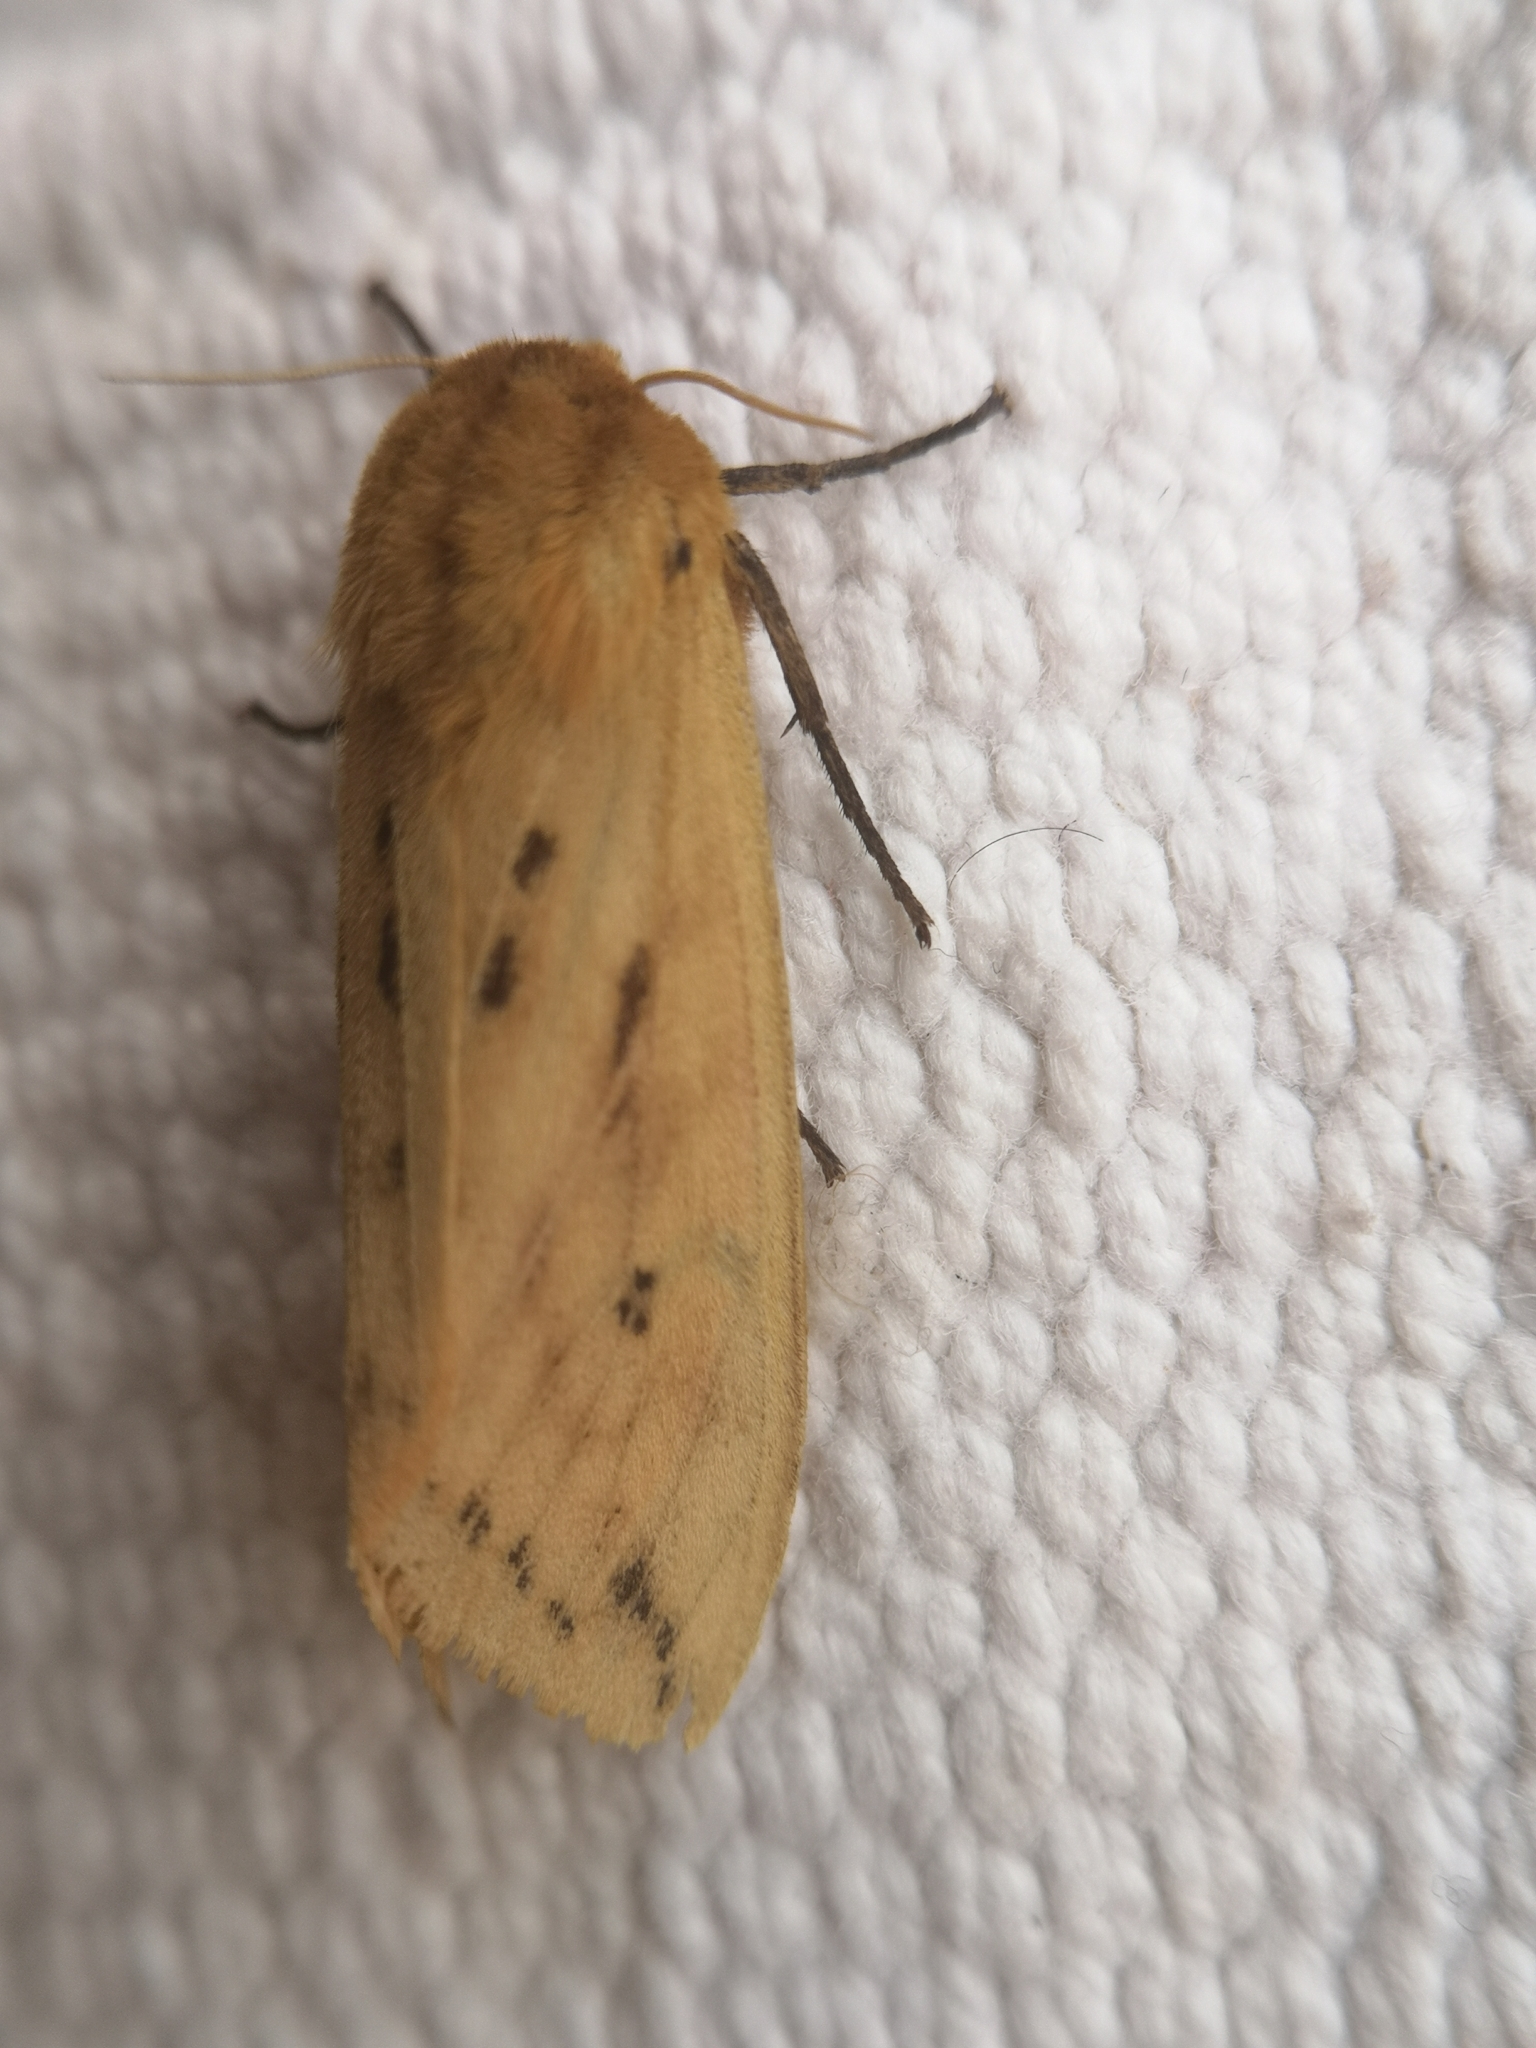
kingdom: Animalia
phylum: Arthropoda
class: Insecta
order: Lepidoptera
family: Erebidae
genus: Pyrrharctia
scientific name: Pyrrharctia isabella
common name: Isabella tiger moth
